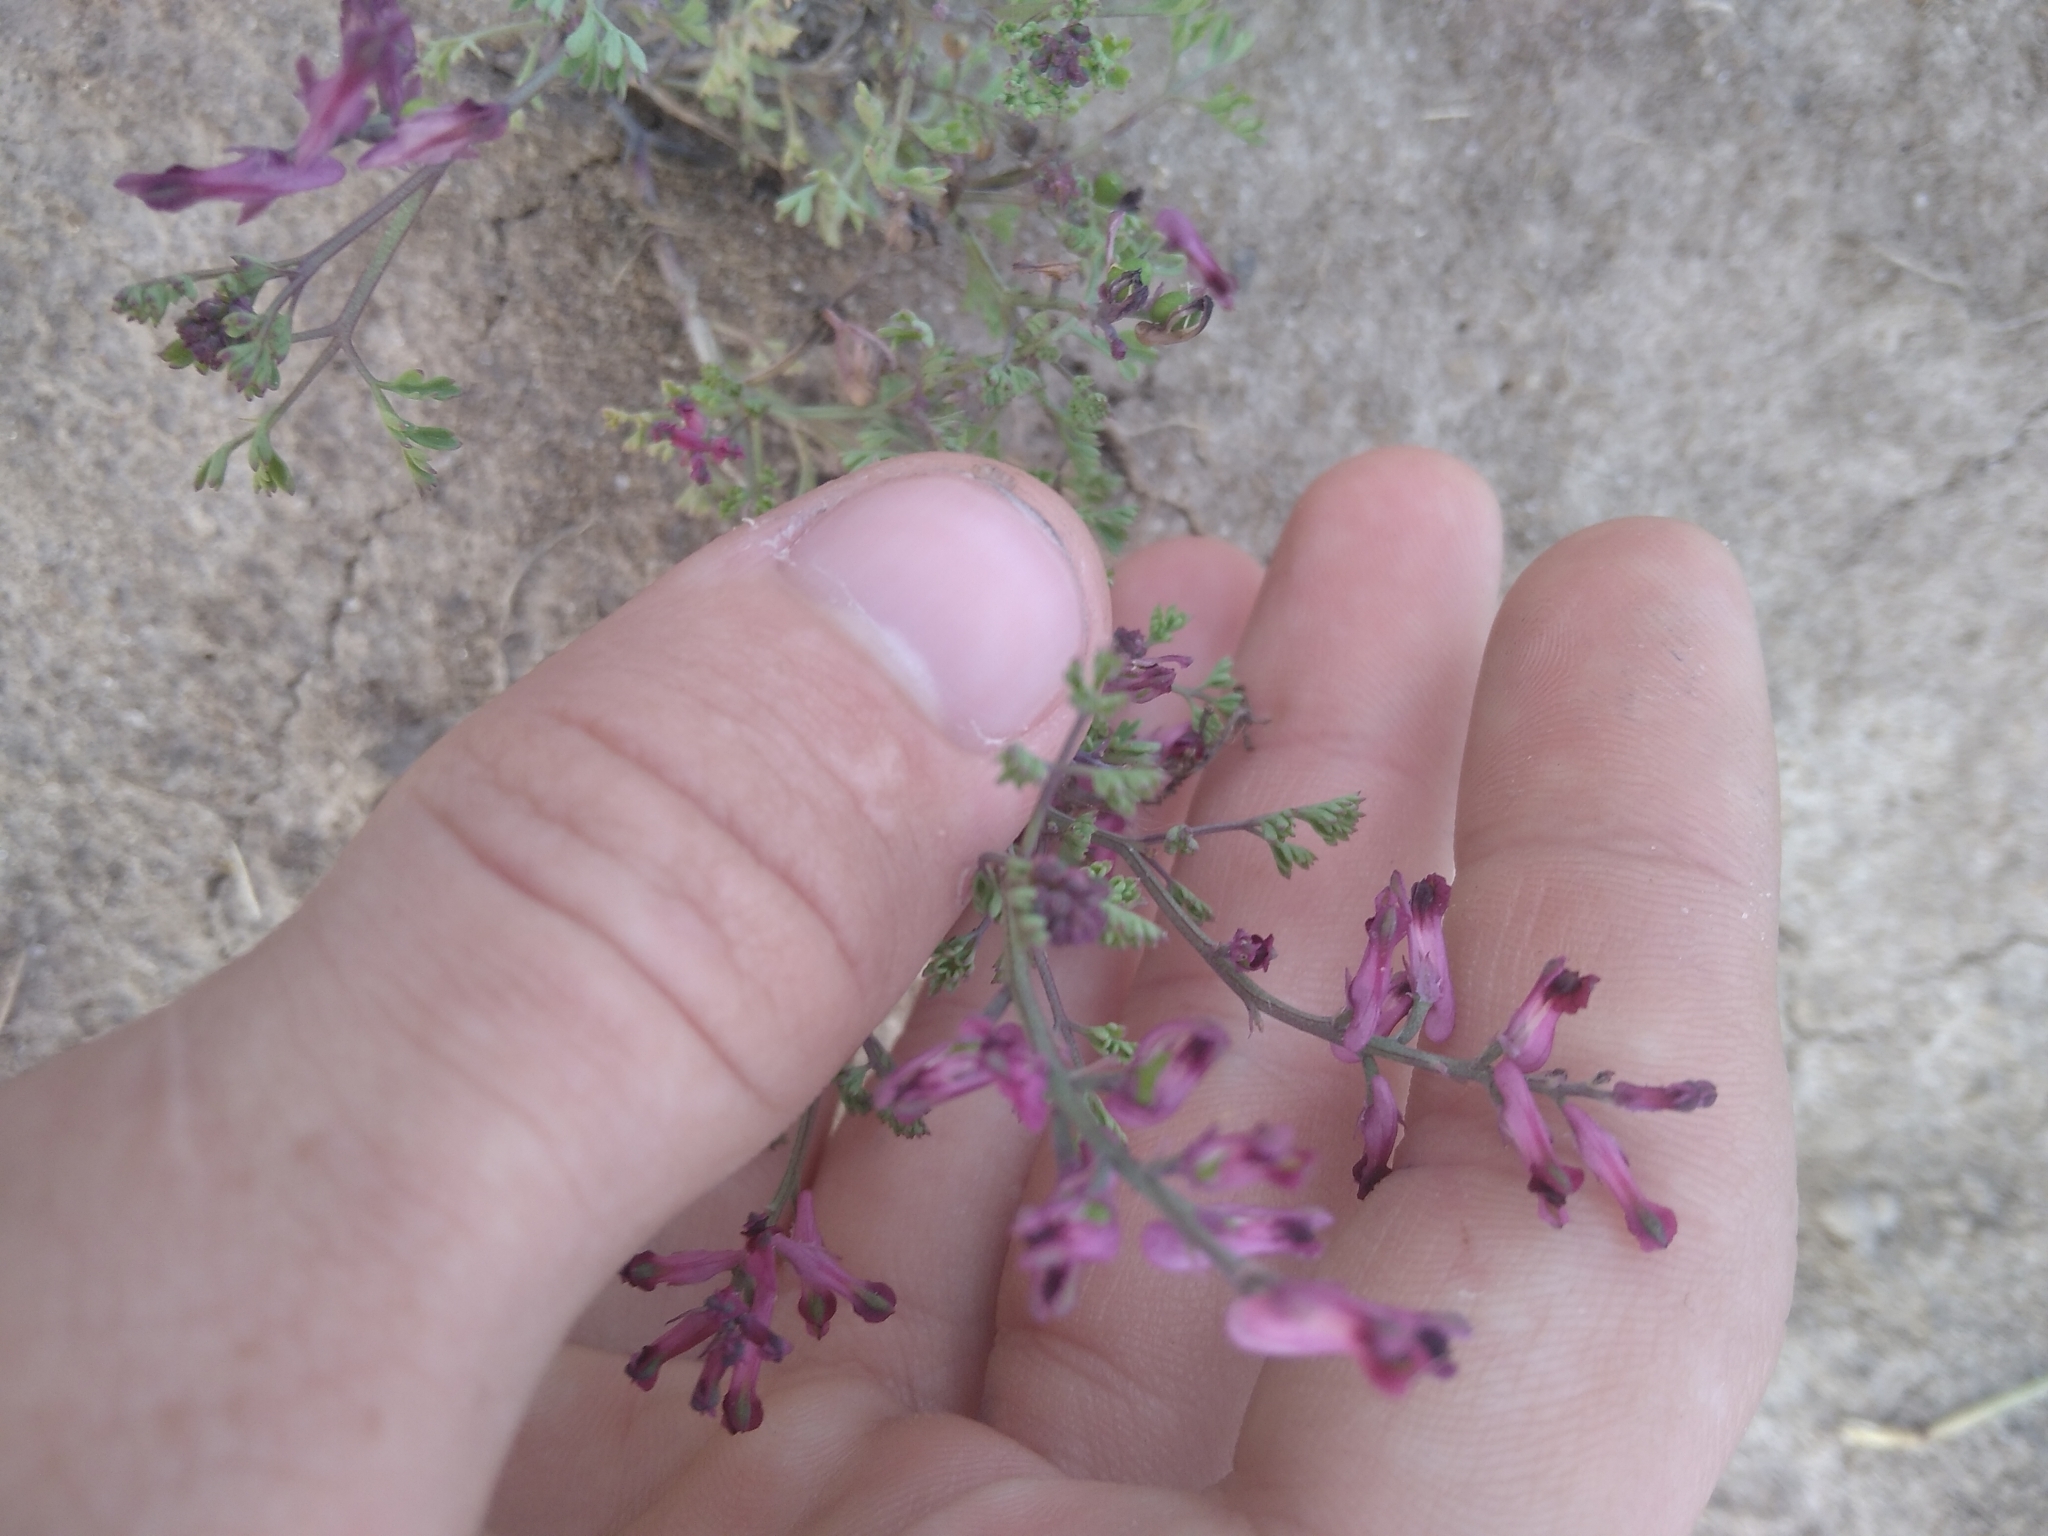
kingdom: Plantae
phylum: Tracheophyta
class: Magnoliopsida
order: Ranunculales
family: Papaveraceae
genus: Fumaria
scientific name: Fumaria officinalis
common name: Common fumitory
